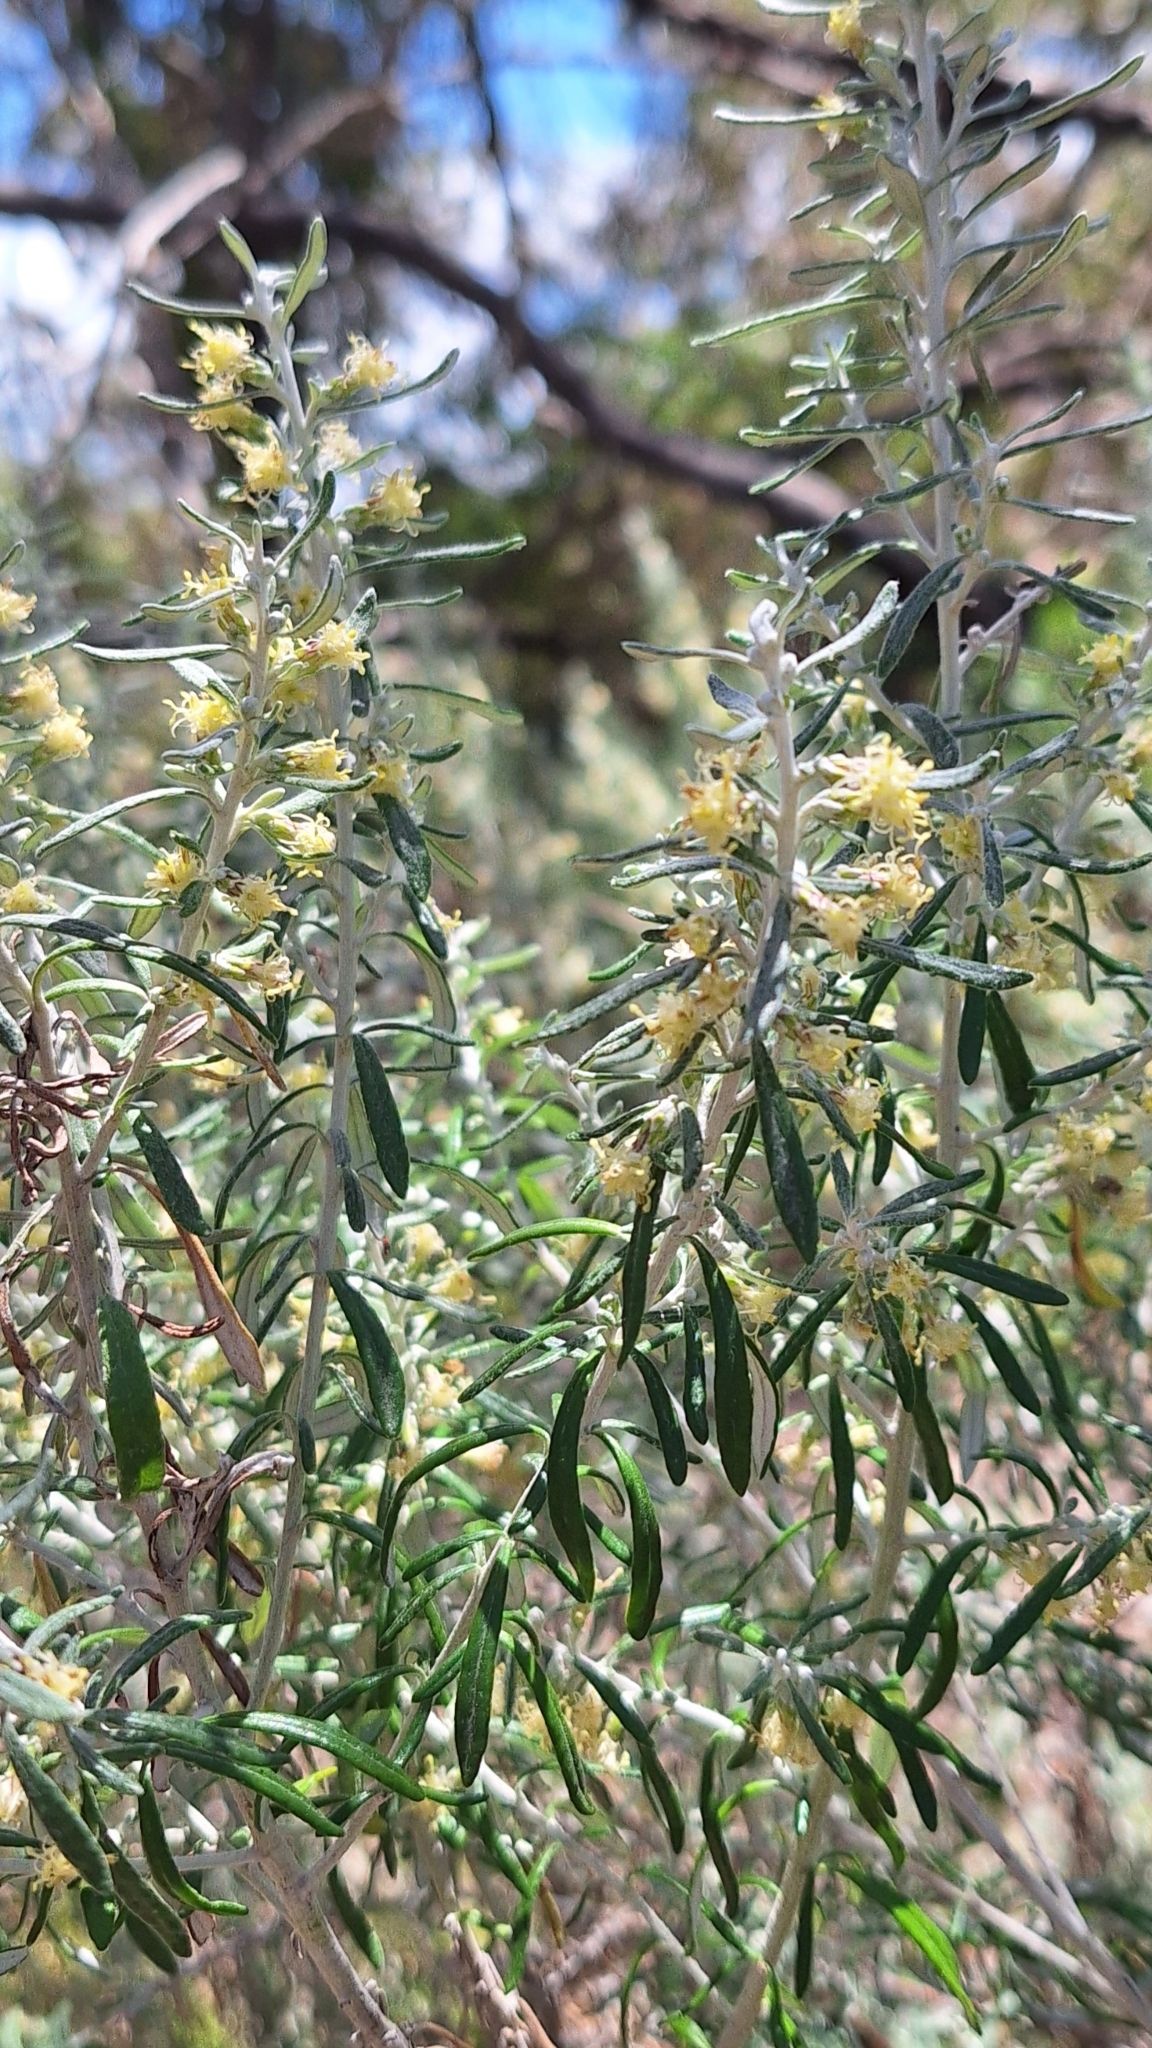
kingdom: Plantae
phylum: Tracheophyta
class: Magnoliopsida
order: Asterales
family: Asteraceae
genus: Olearia
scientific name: Olearia axillaris
